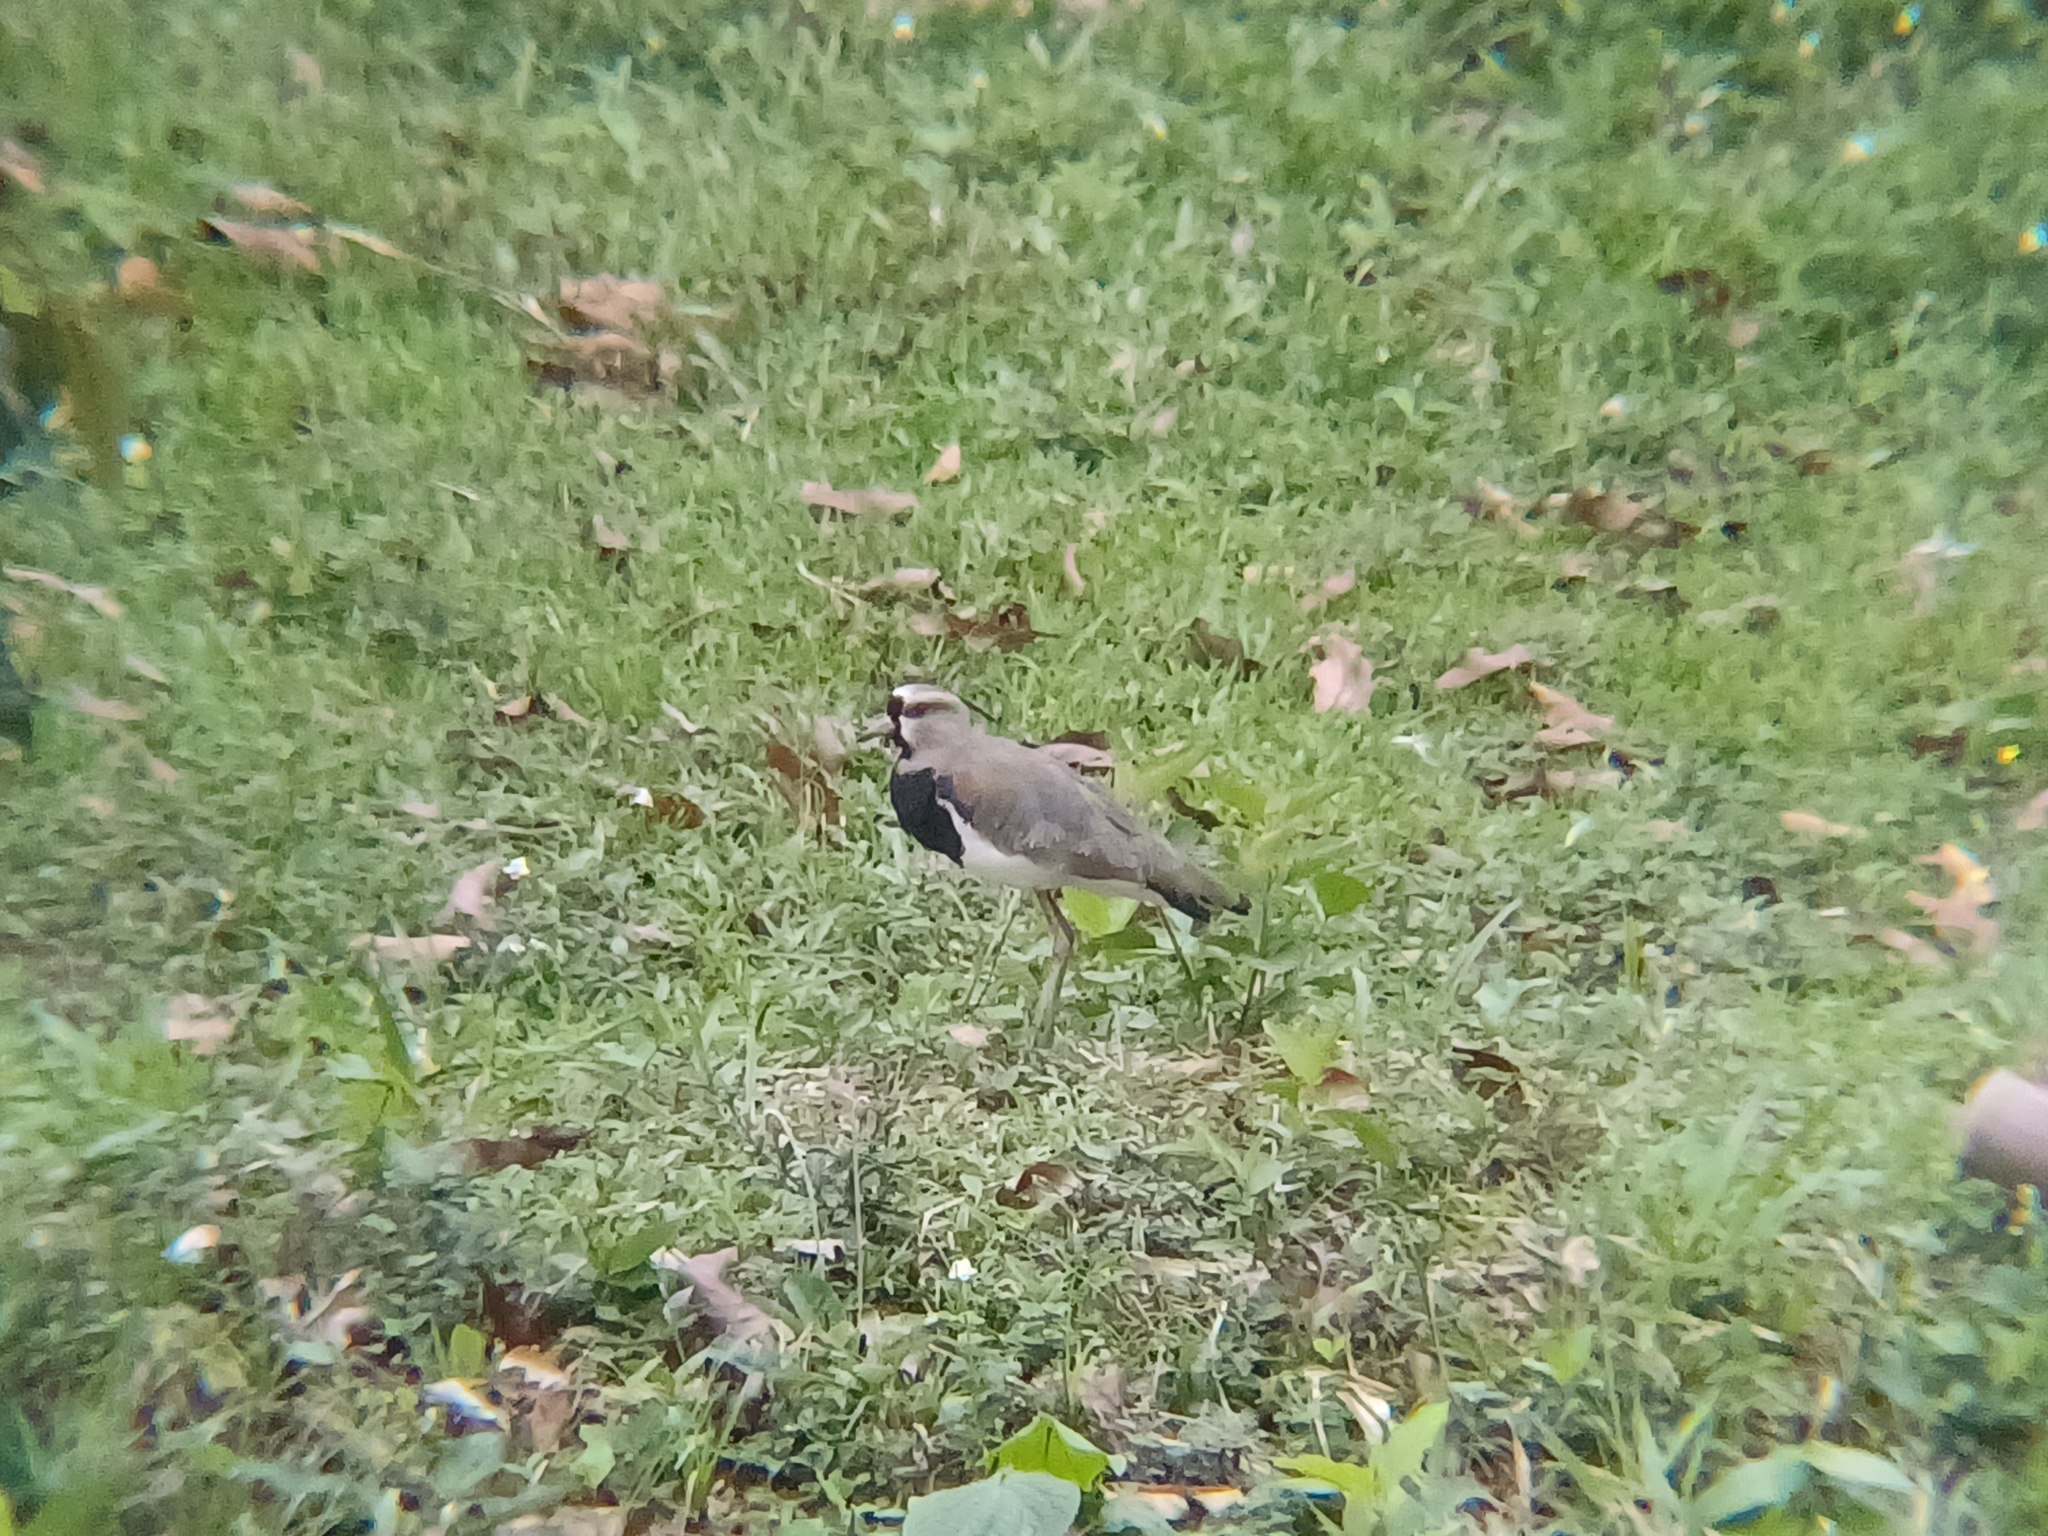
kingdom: Animalia
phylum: Chordata
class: Aves
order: Charadriiformes
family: Charadriidae
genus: Vanellus
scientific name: Vanellus chilensis
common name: Southern lapwing
